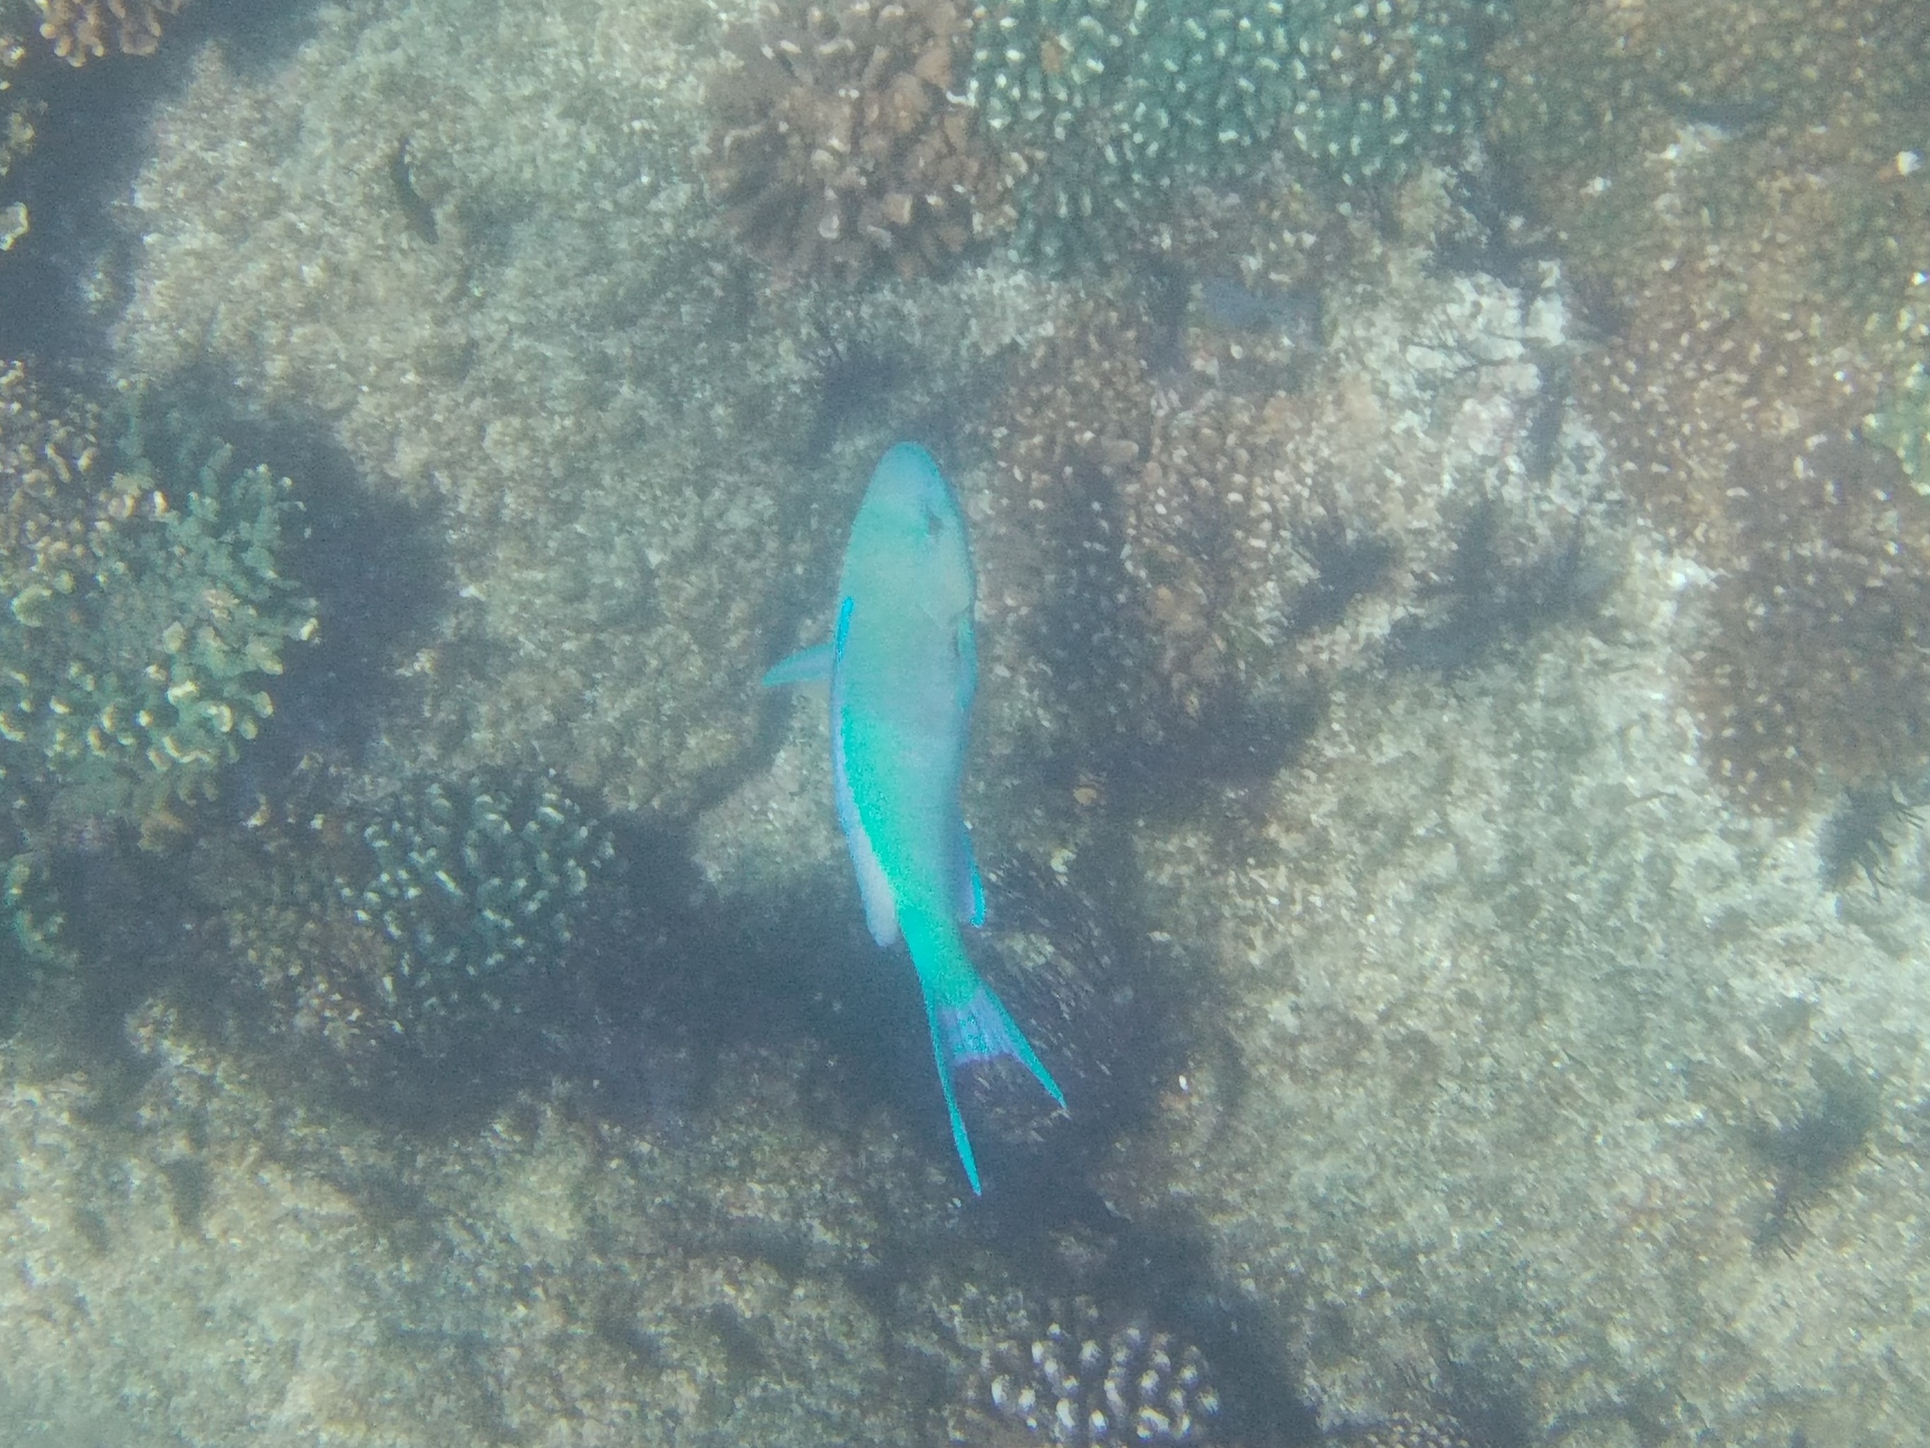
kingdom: Animalia
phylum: Chordata
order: Perciformes
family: Scaridae
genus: Scarus
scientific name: Scarus rubroviolaceus
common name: Ember parrotfish
